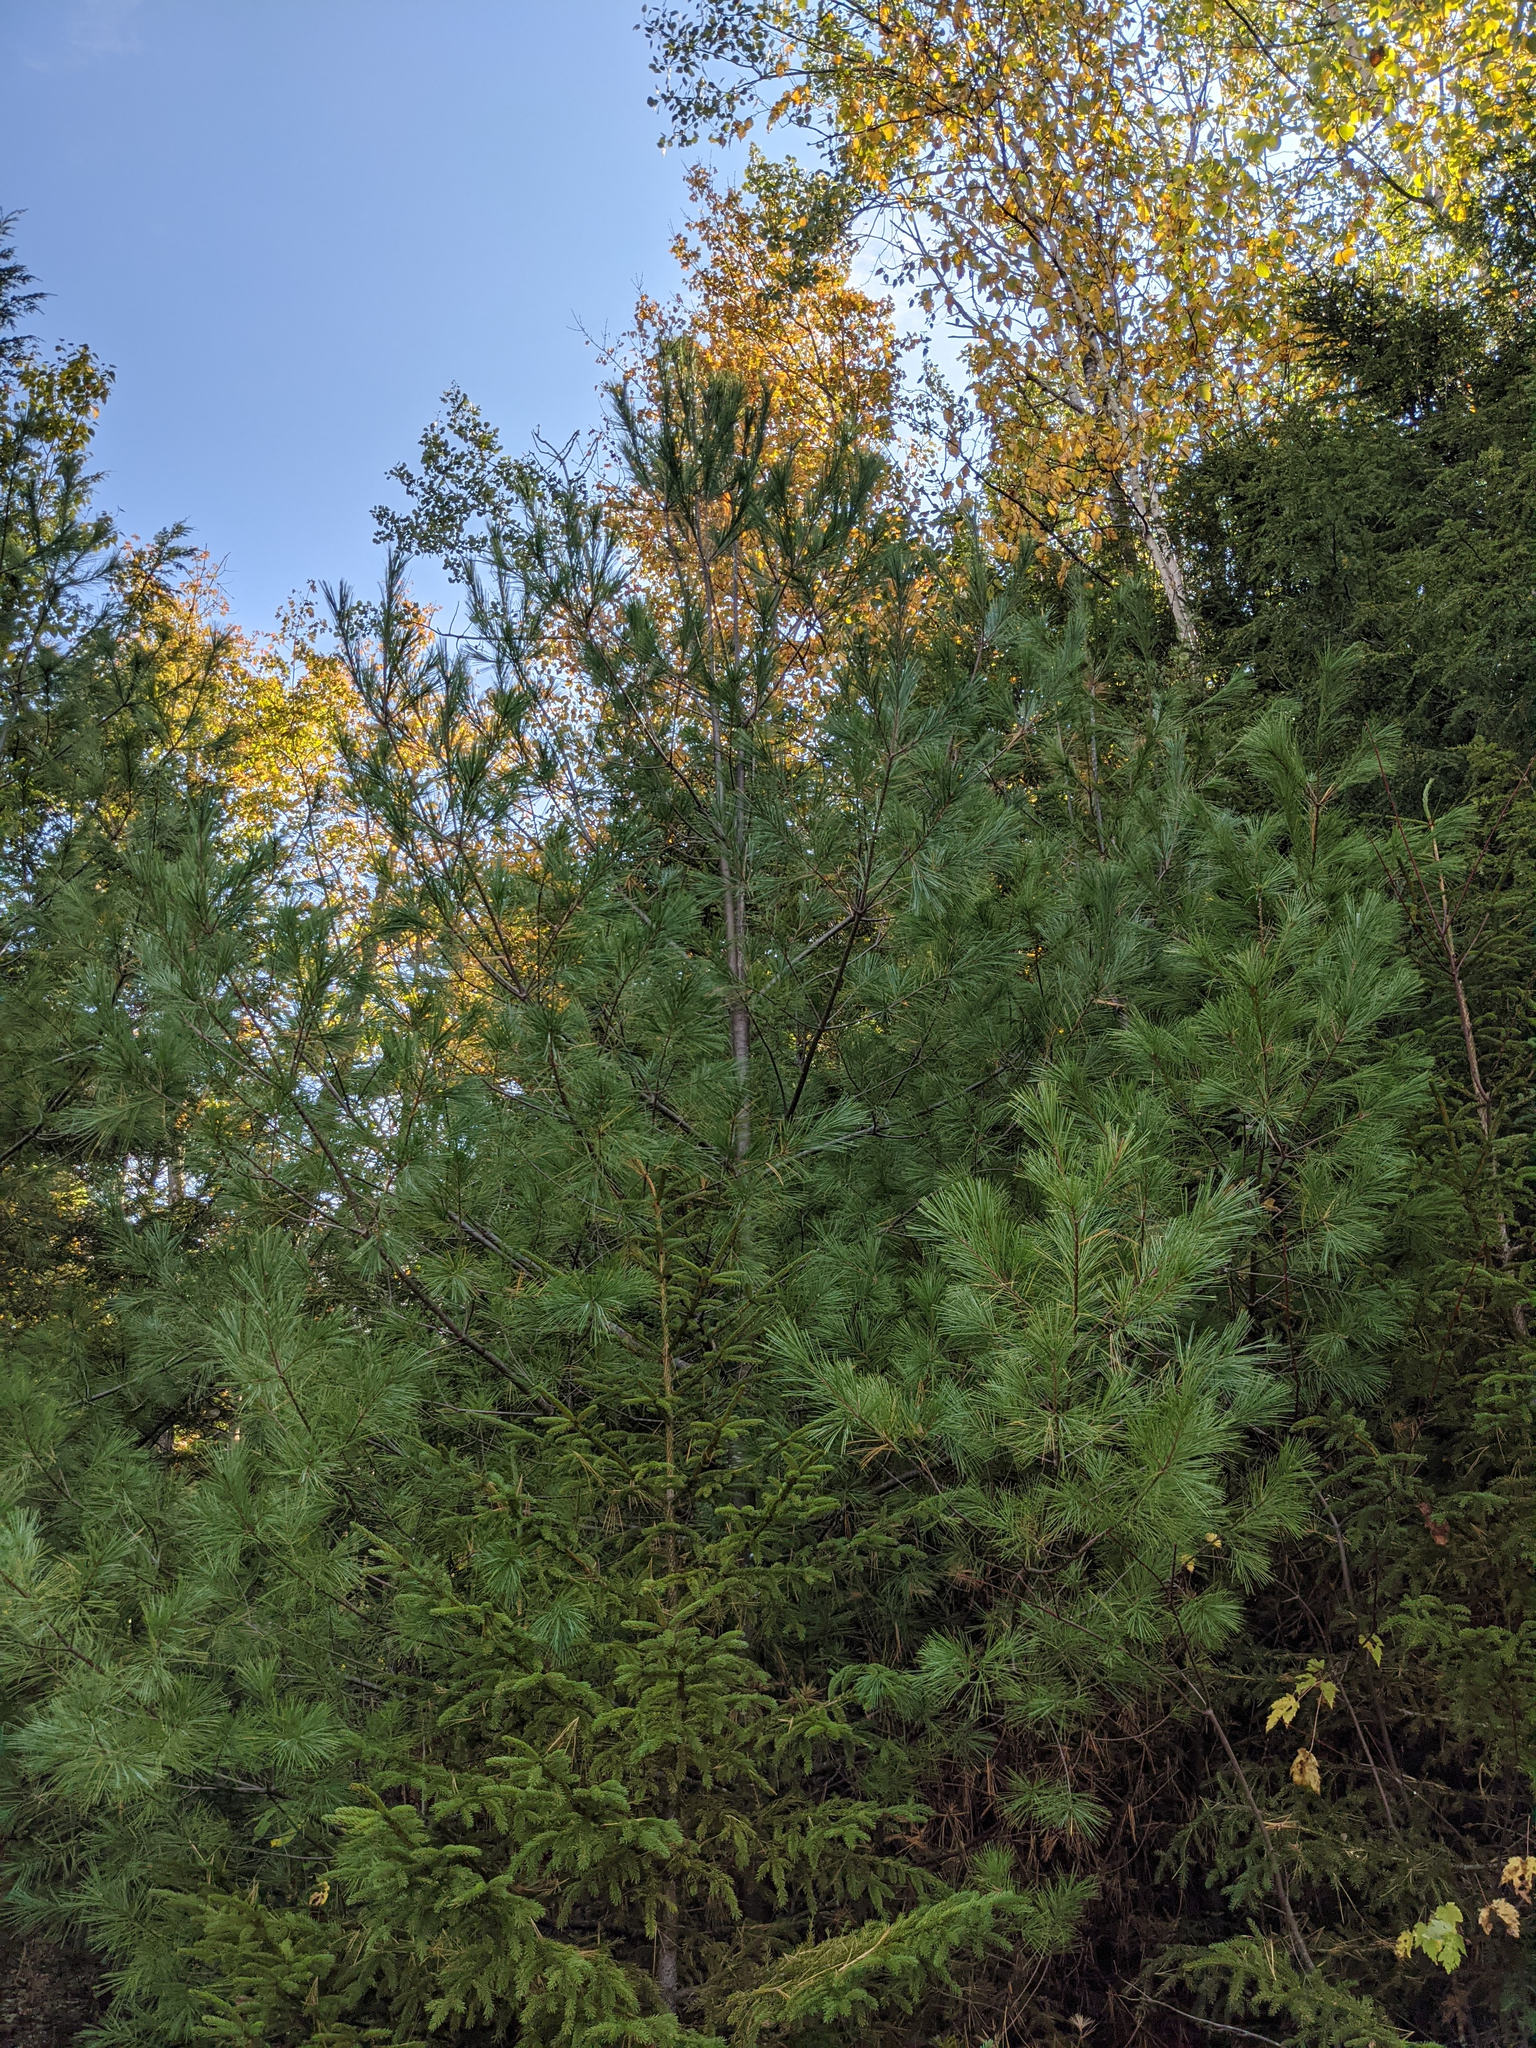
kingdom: Plantae
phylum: Tracheophyta
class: Pinopsida
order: Pinales
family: Pinaceae
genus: Pinus
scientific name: Pinus strobus
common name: Weymouth pine
